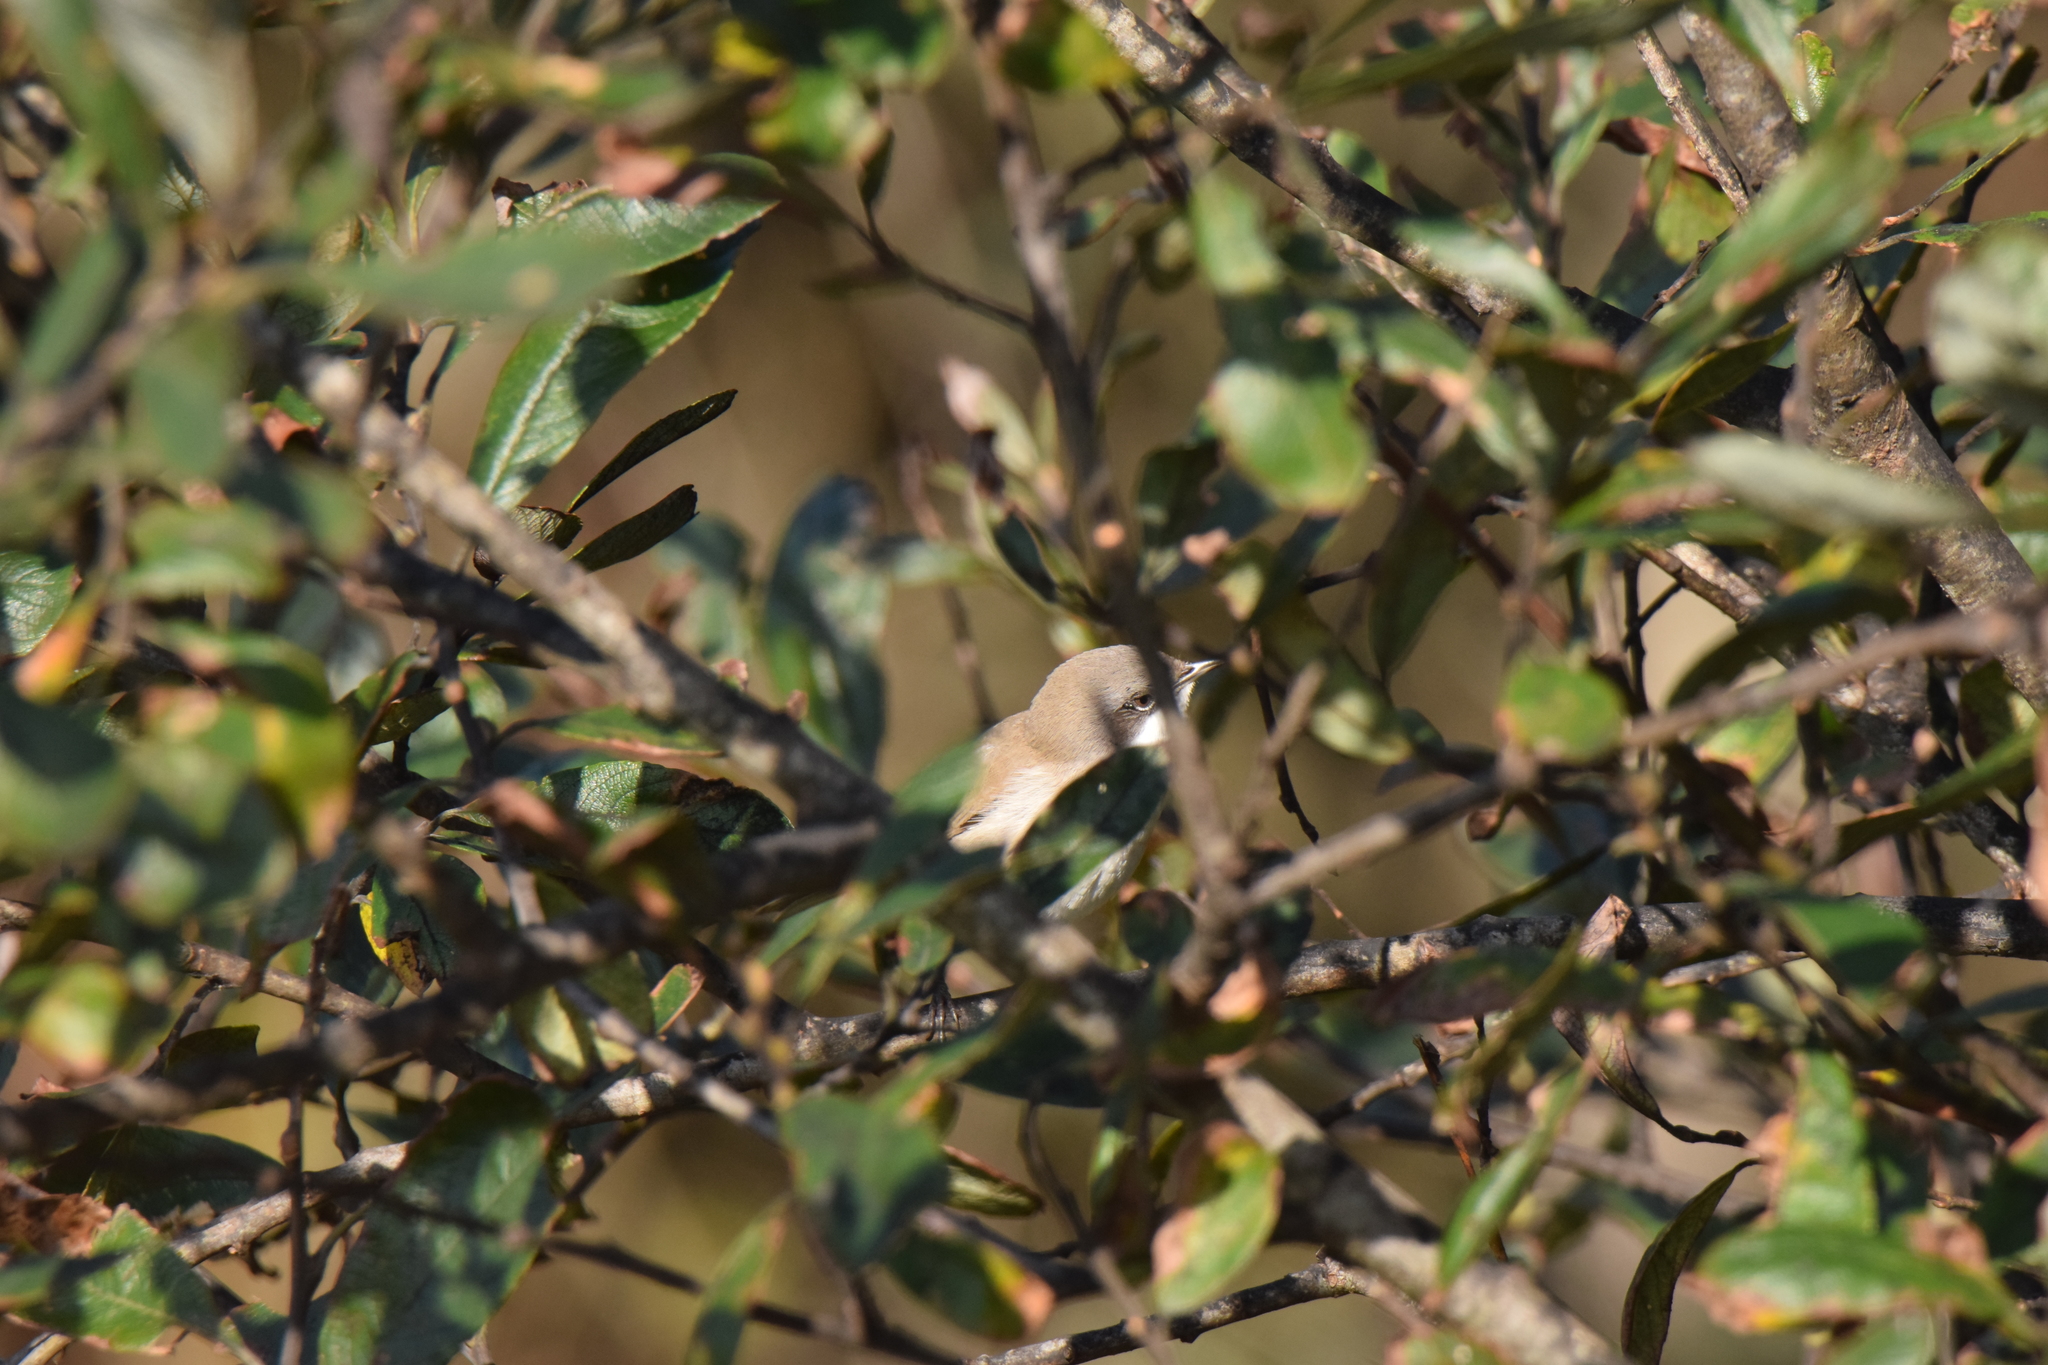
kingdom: Animalia
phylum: Chordata
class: Aves
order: Passeriformes
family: Sylviidae
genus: Sylvia
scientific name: Sylvia curruca
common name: Lesser whitethroat
